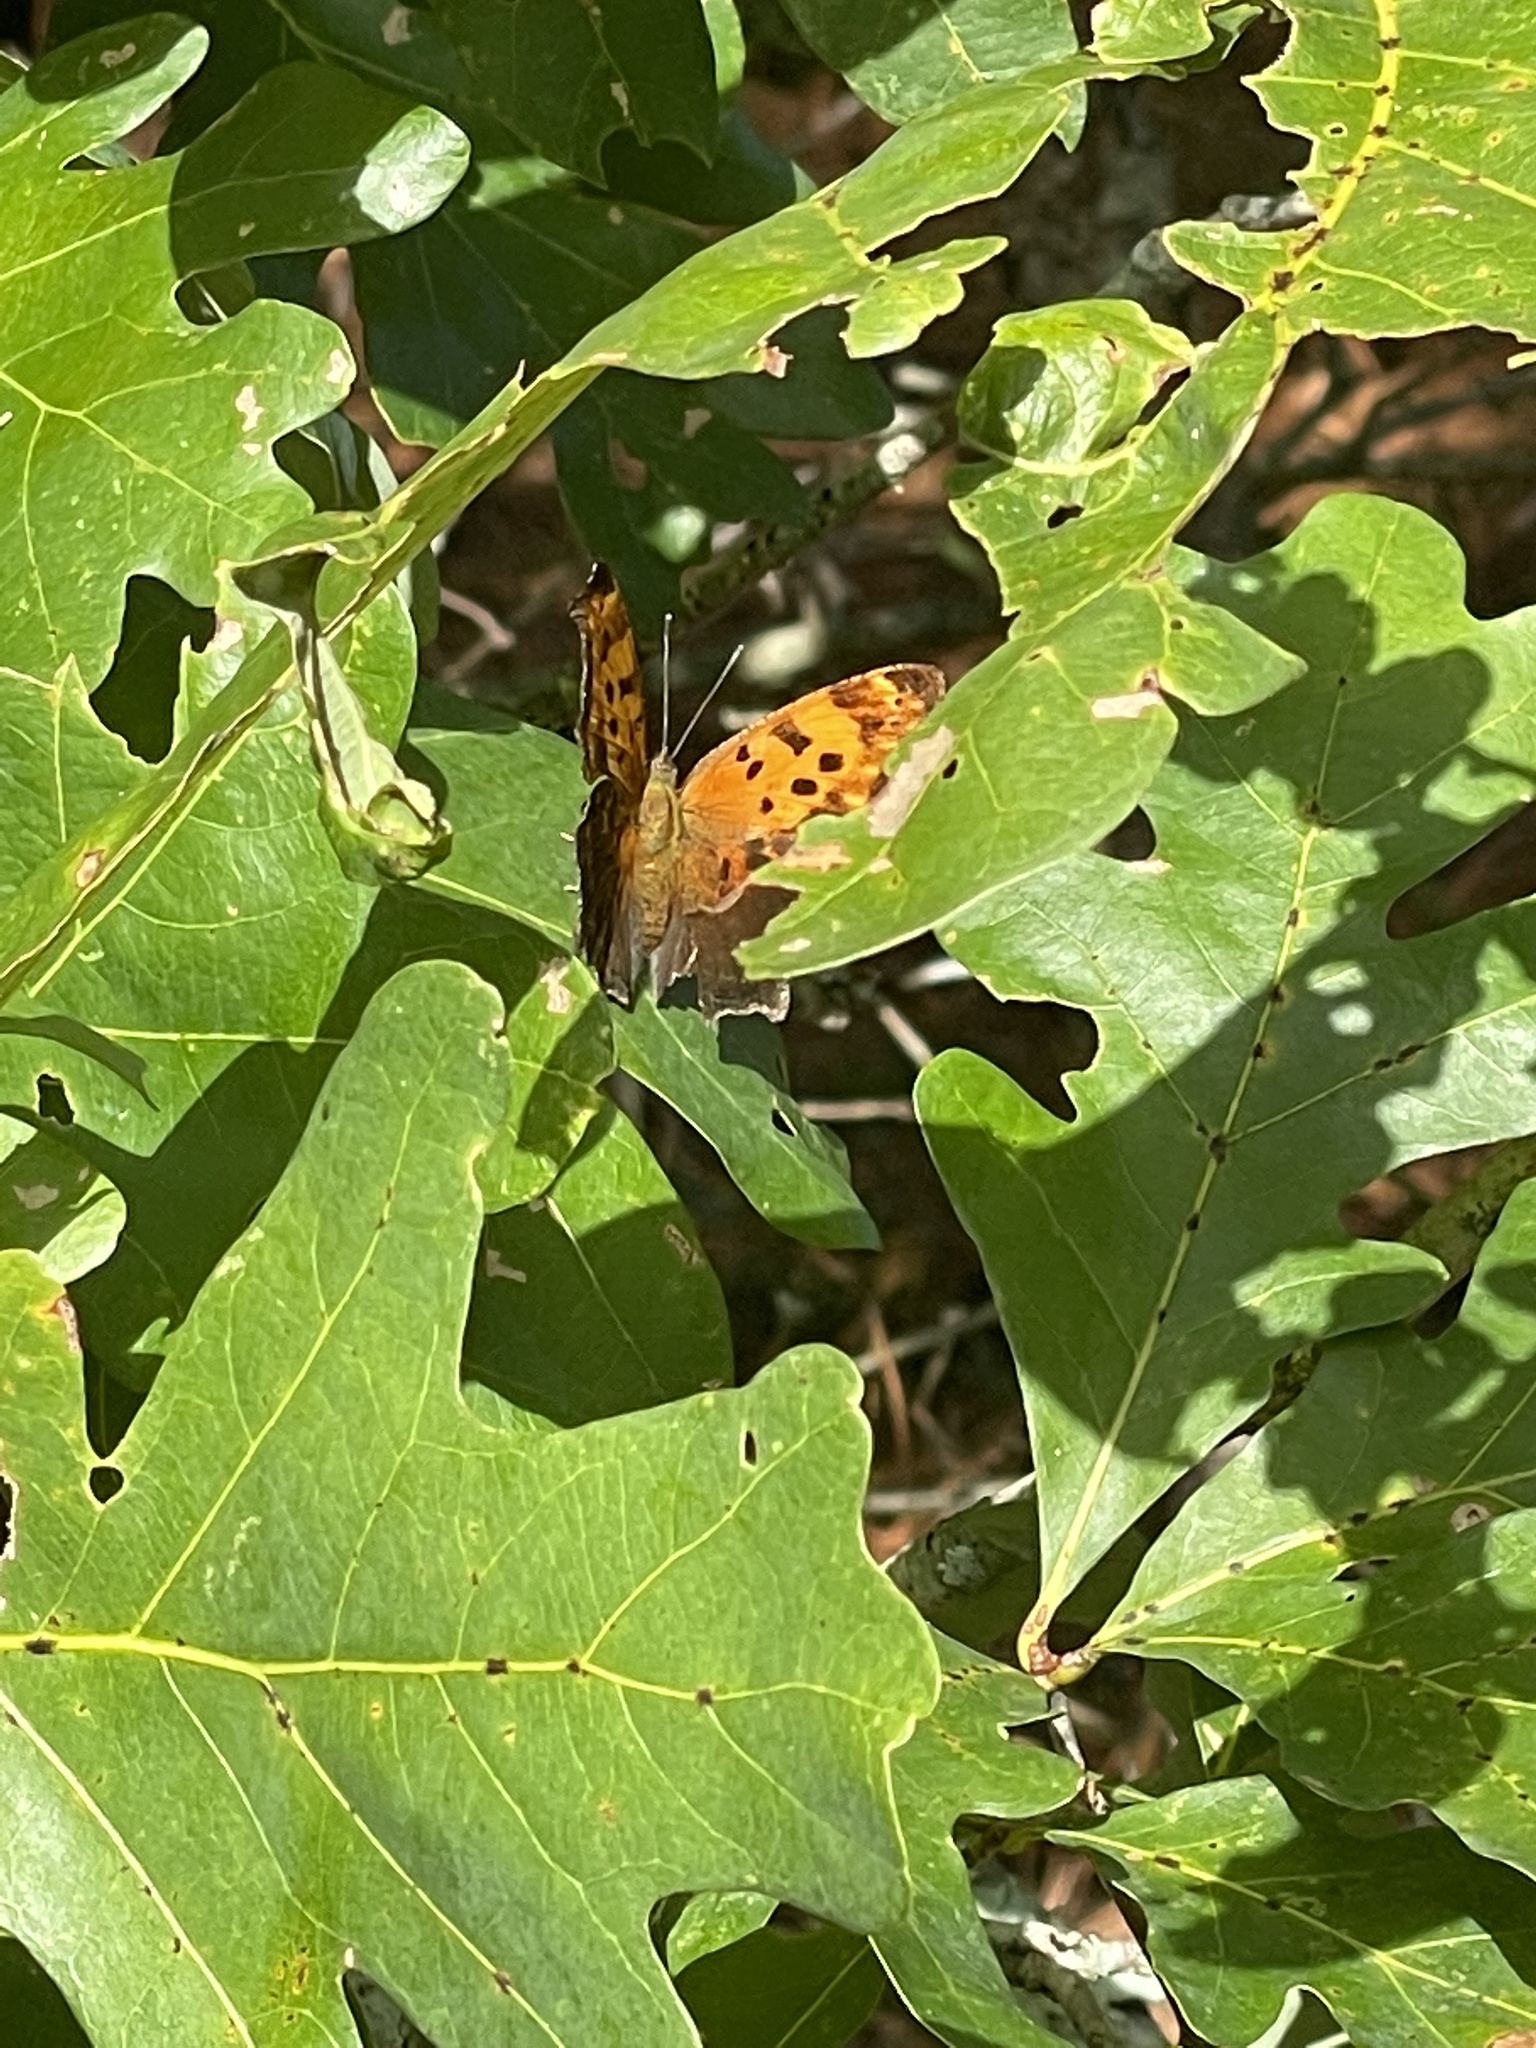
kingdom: Animalia
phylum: Arthropoda
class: Insecta
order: Lepidoptera
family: Nymphalidae
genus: Polygonia
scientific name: Polygonia comma
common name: Eastern comma
